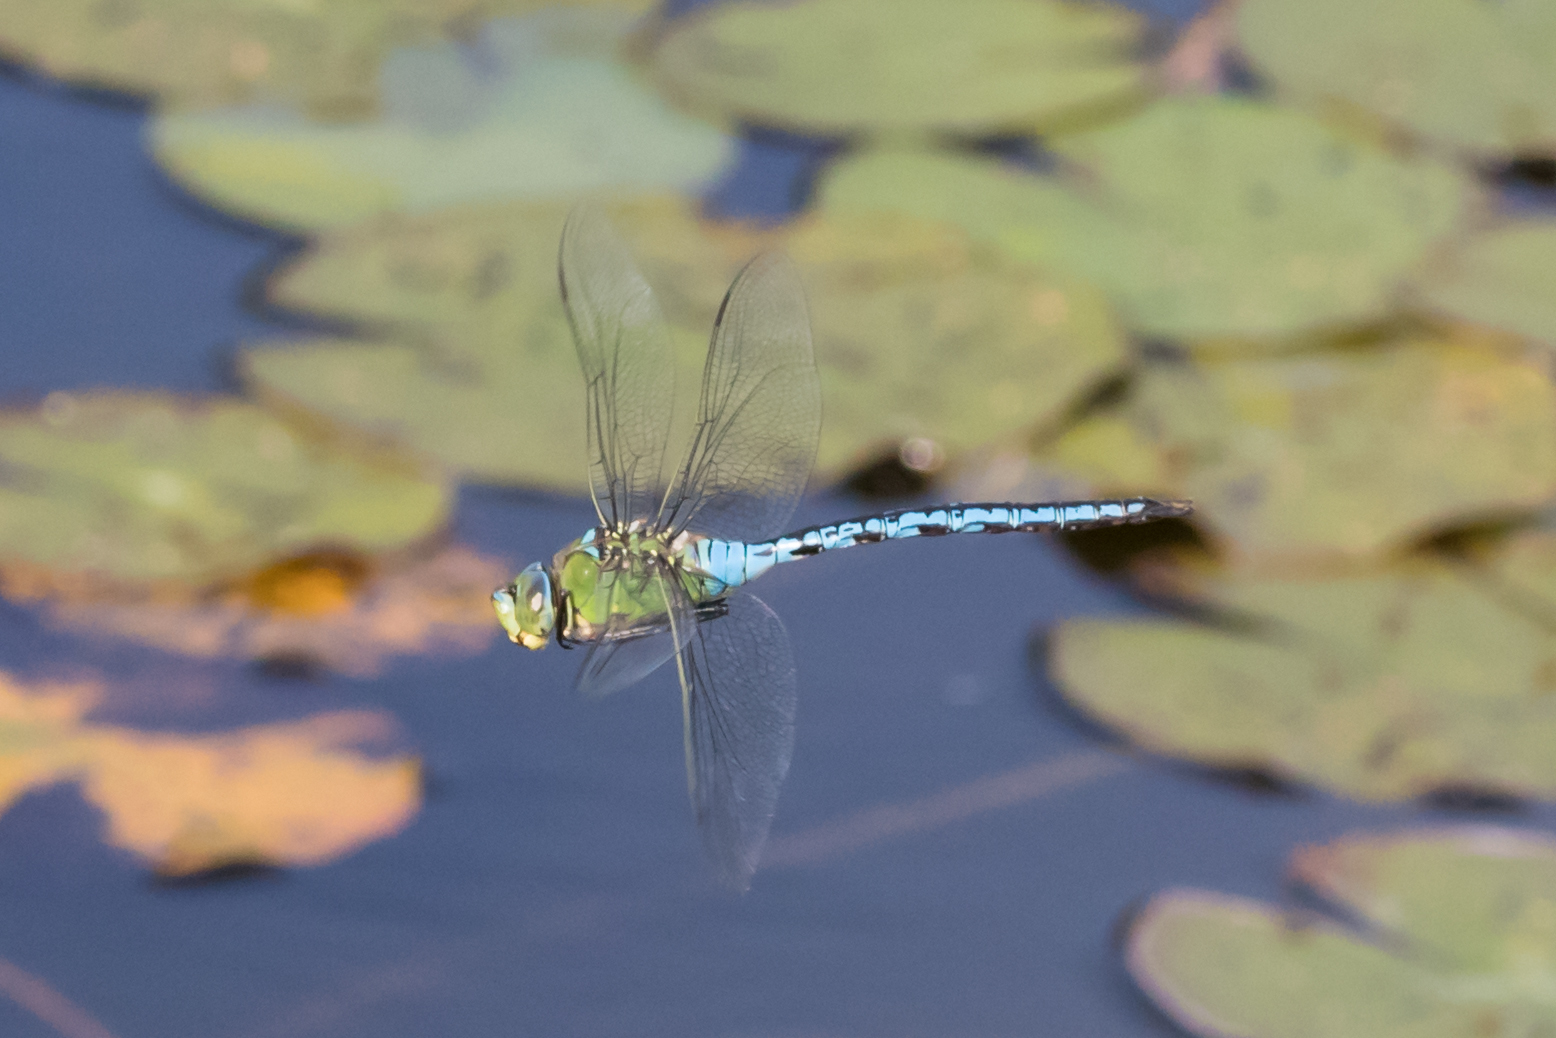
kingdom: Animalia
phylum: Arthropoda
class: Insecta
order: Odonata
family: Aeshnidae
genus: Anax
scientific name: Anax imperator
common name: Emperor dragonfly
